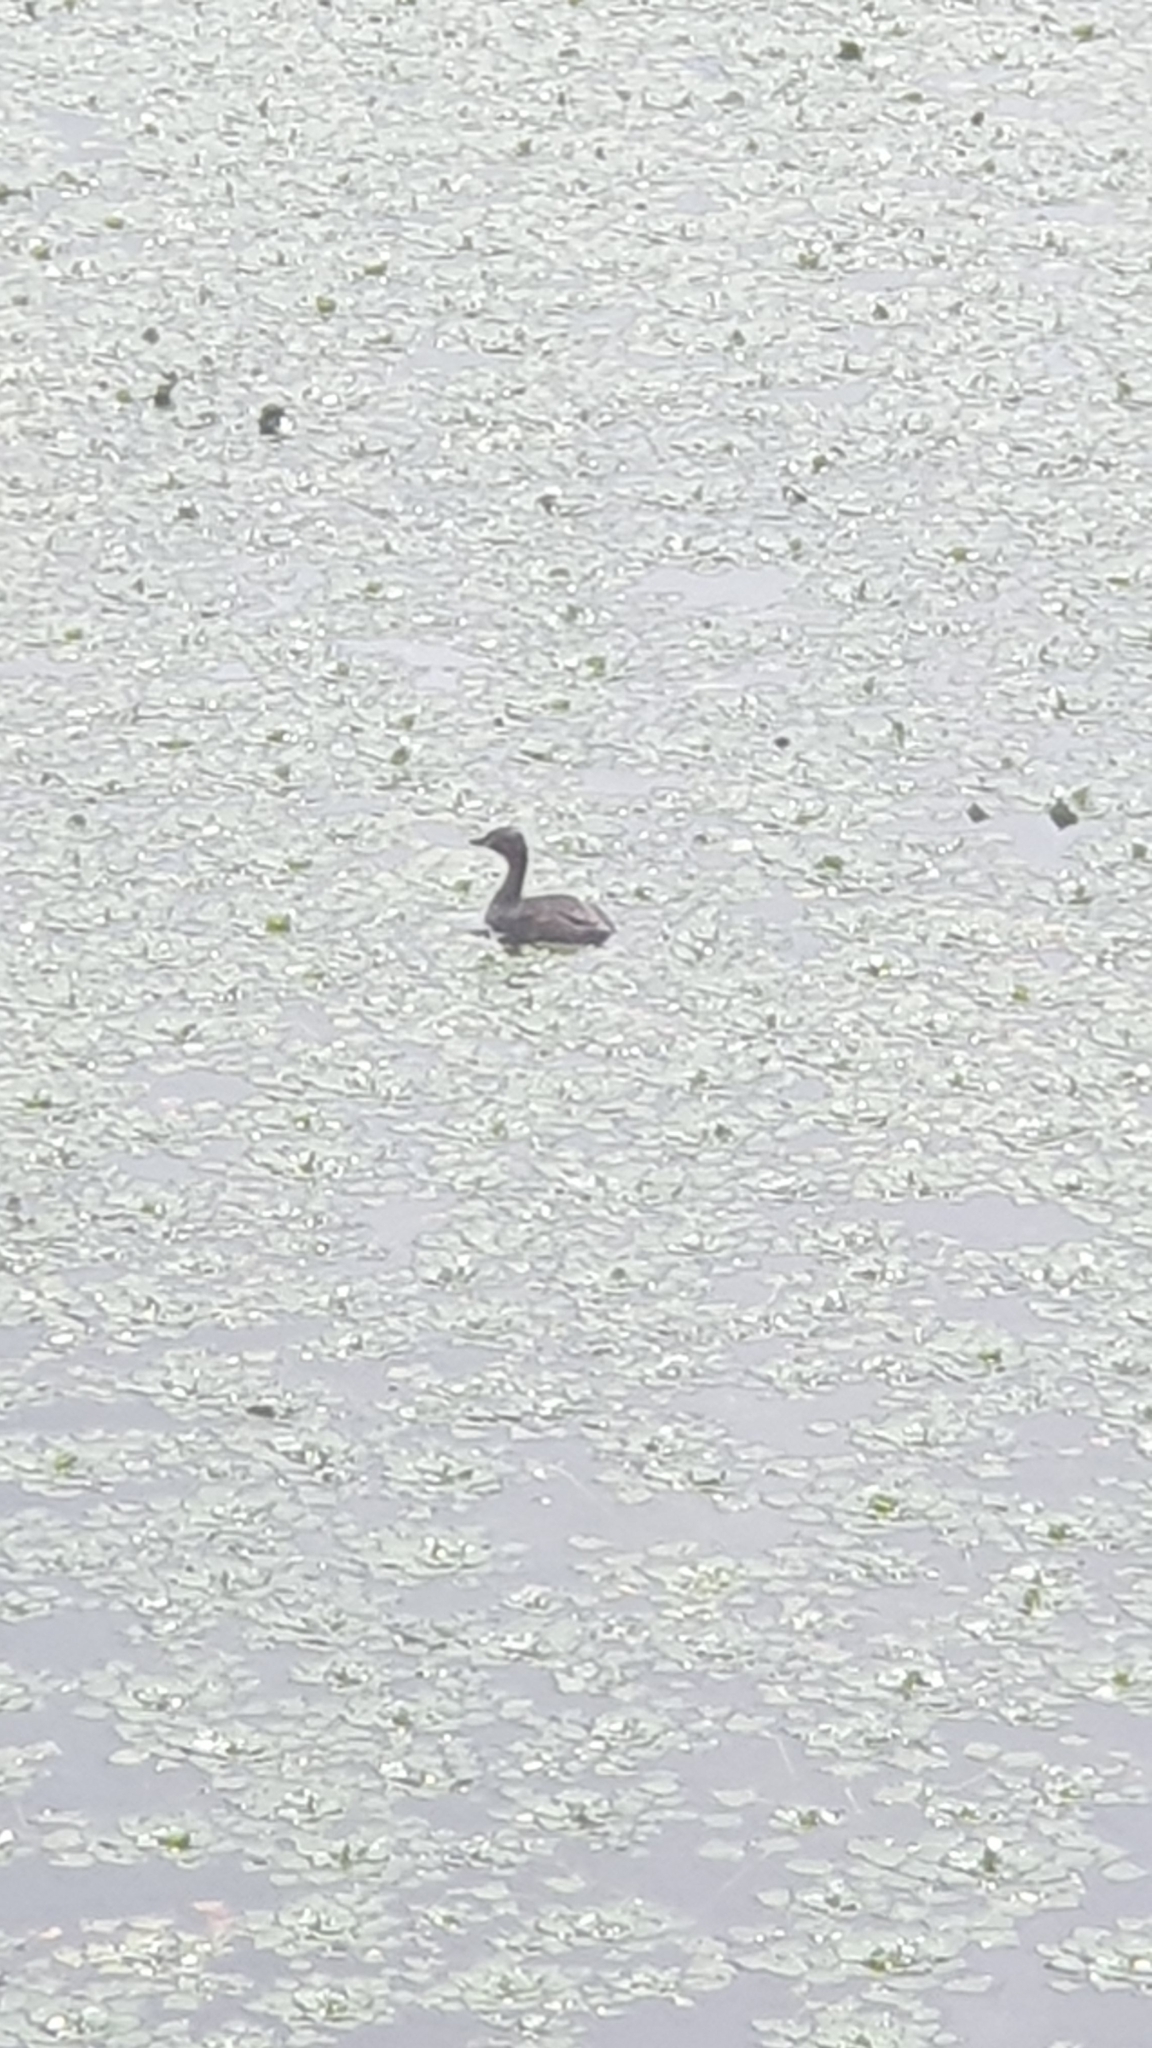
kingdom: Animalia
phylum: Chordata
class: Aves
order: Podicipediformes
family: Podicipedidae
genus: Tachybaptus
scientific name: Tachybaptus ruficollis
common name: Little grebe
